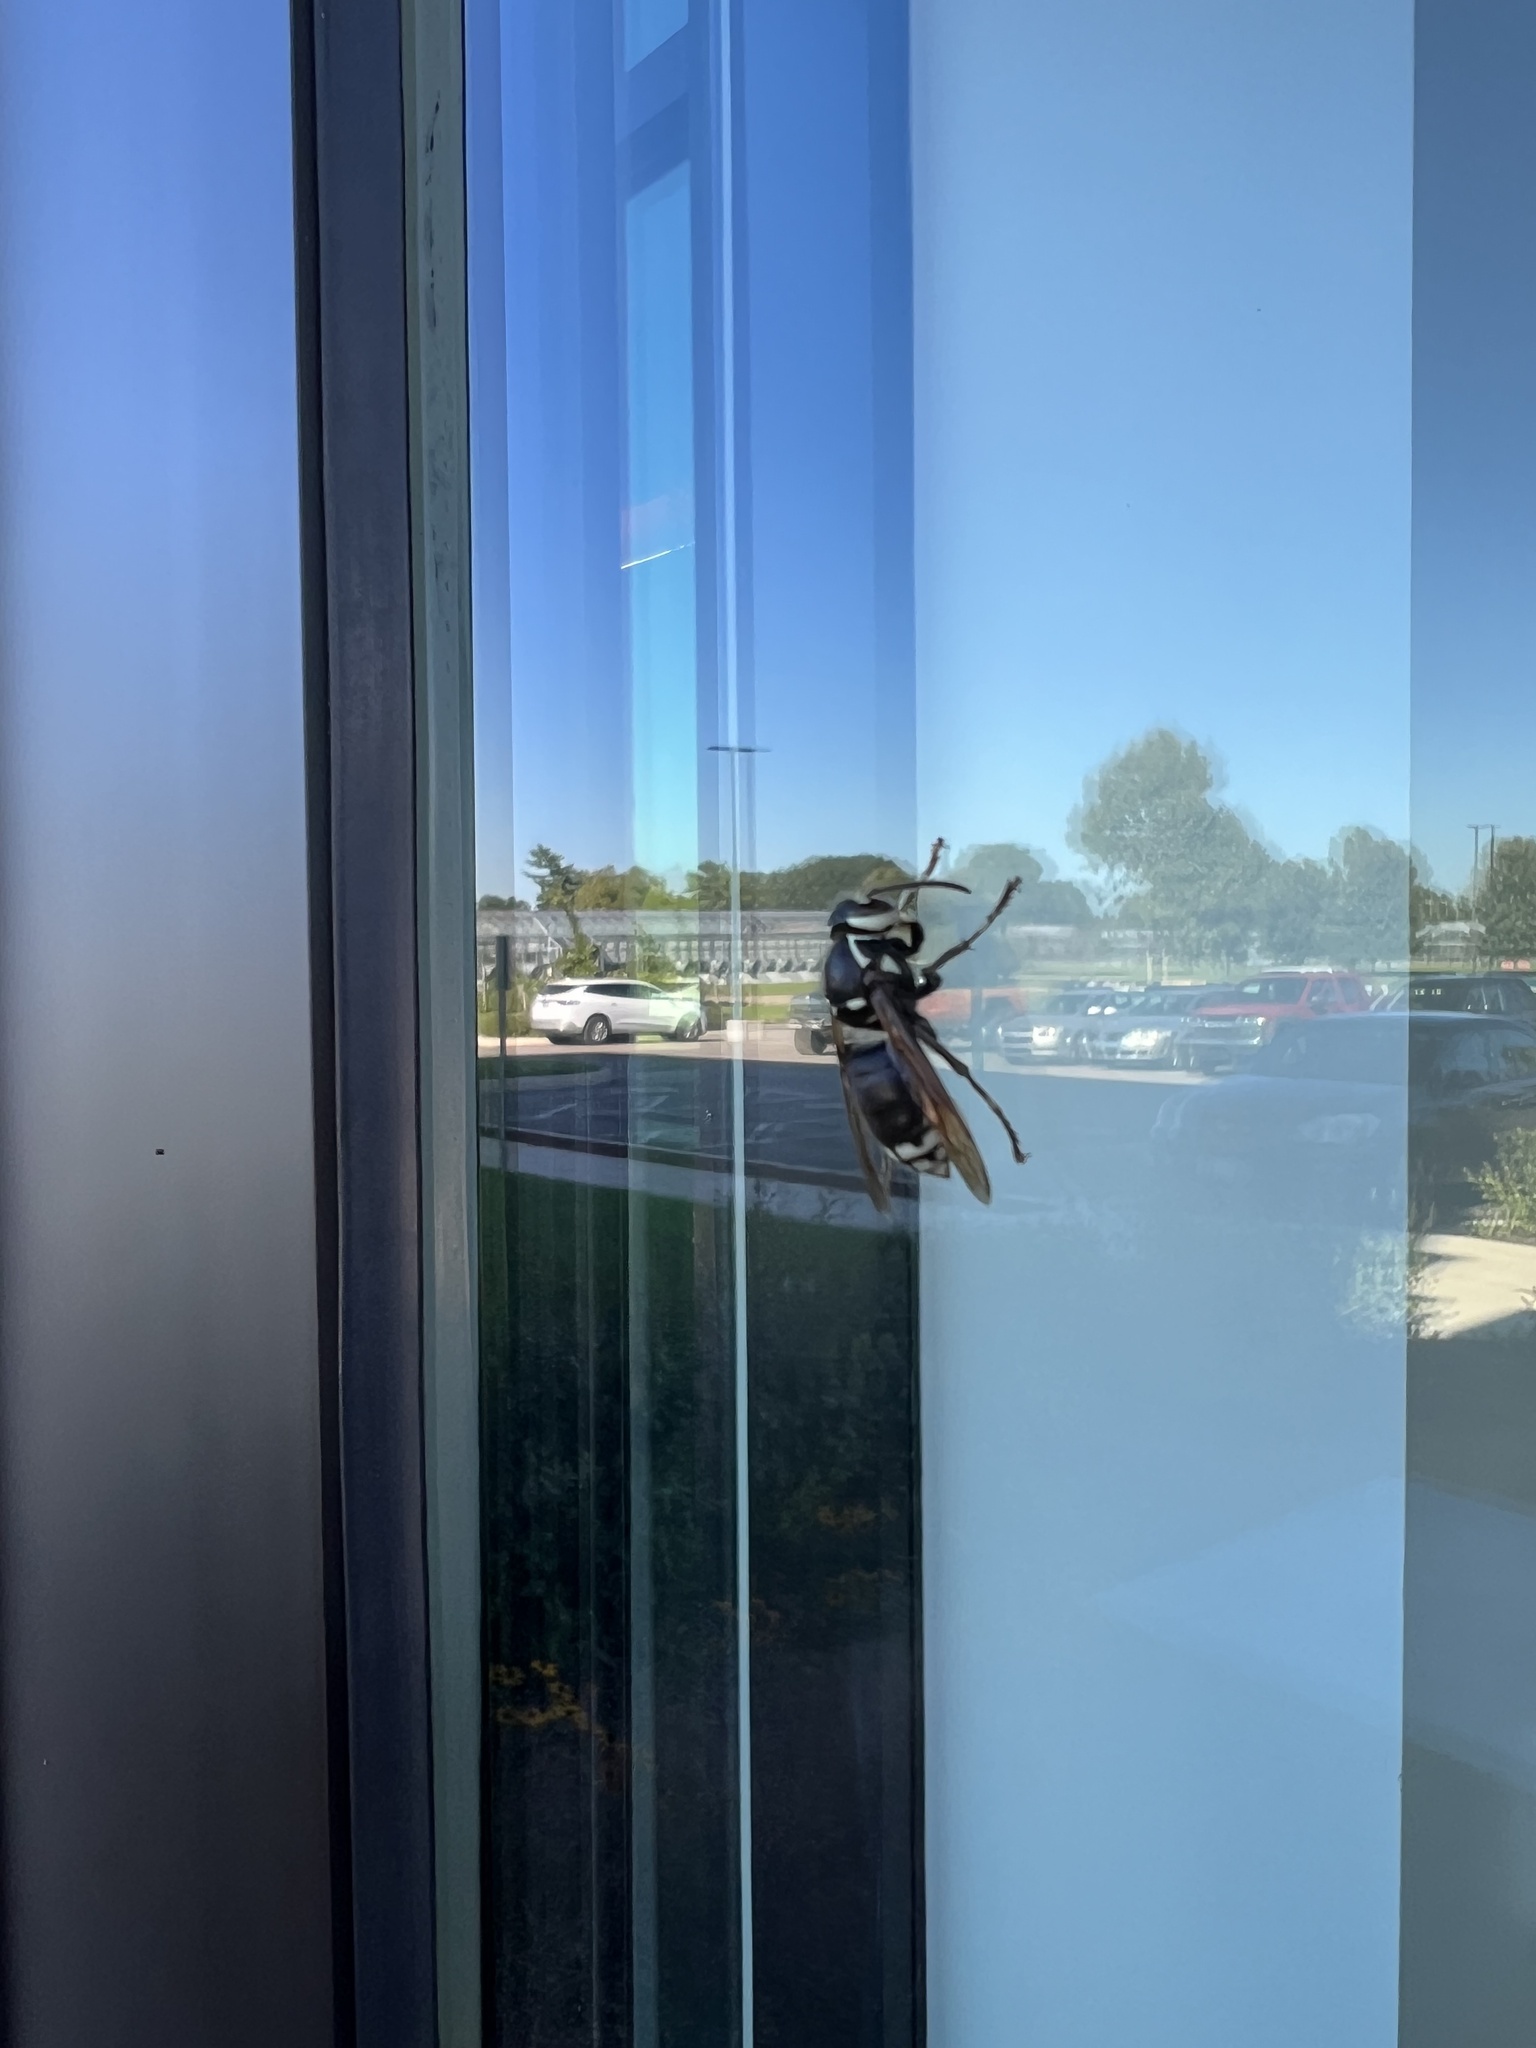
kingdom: Animalia
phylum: Arthropoda
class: Insecta
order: Hymenoptera
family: Vespidae
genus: Dolichovespula
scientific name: Dolichovespula maculata
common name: Bald-faced hornet
